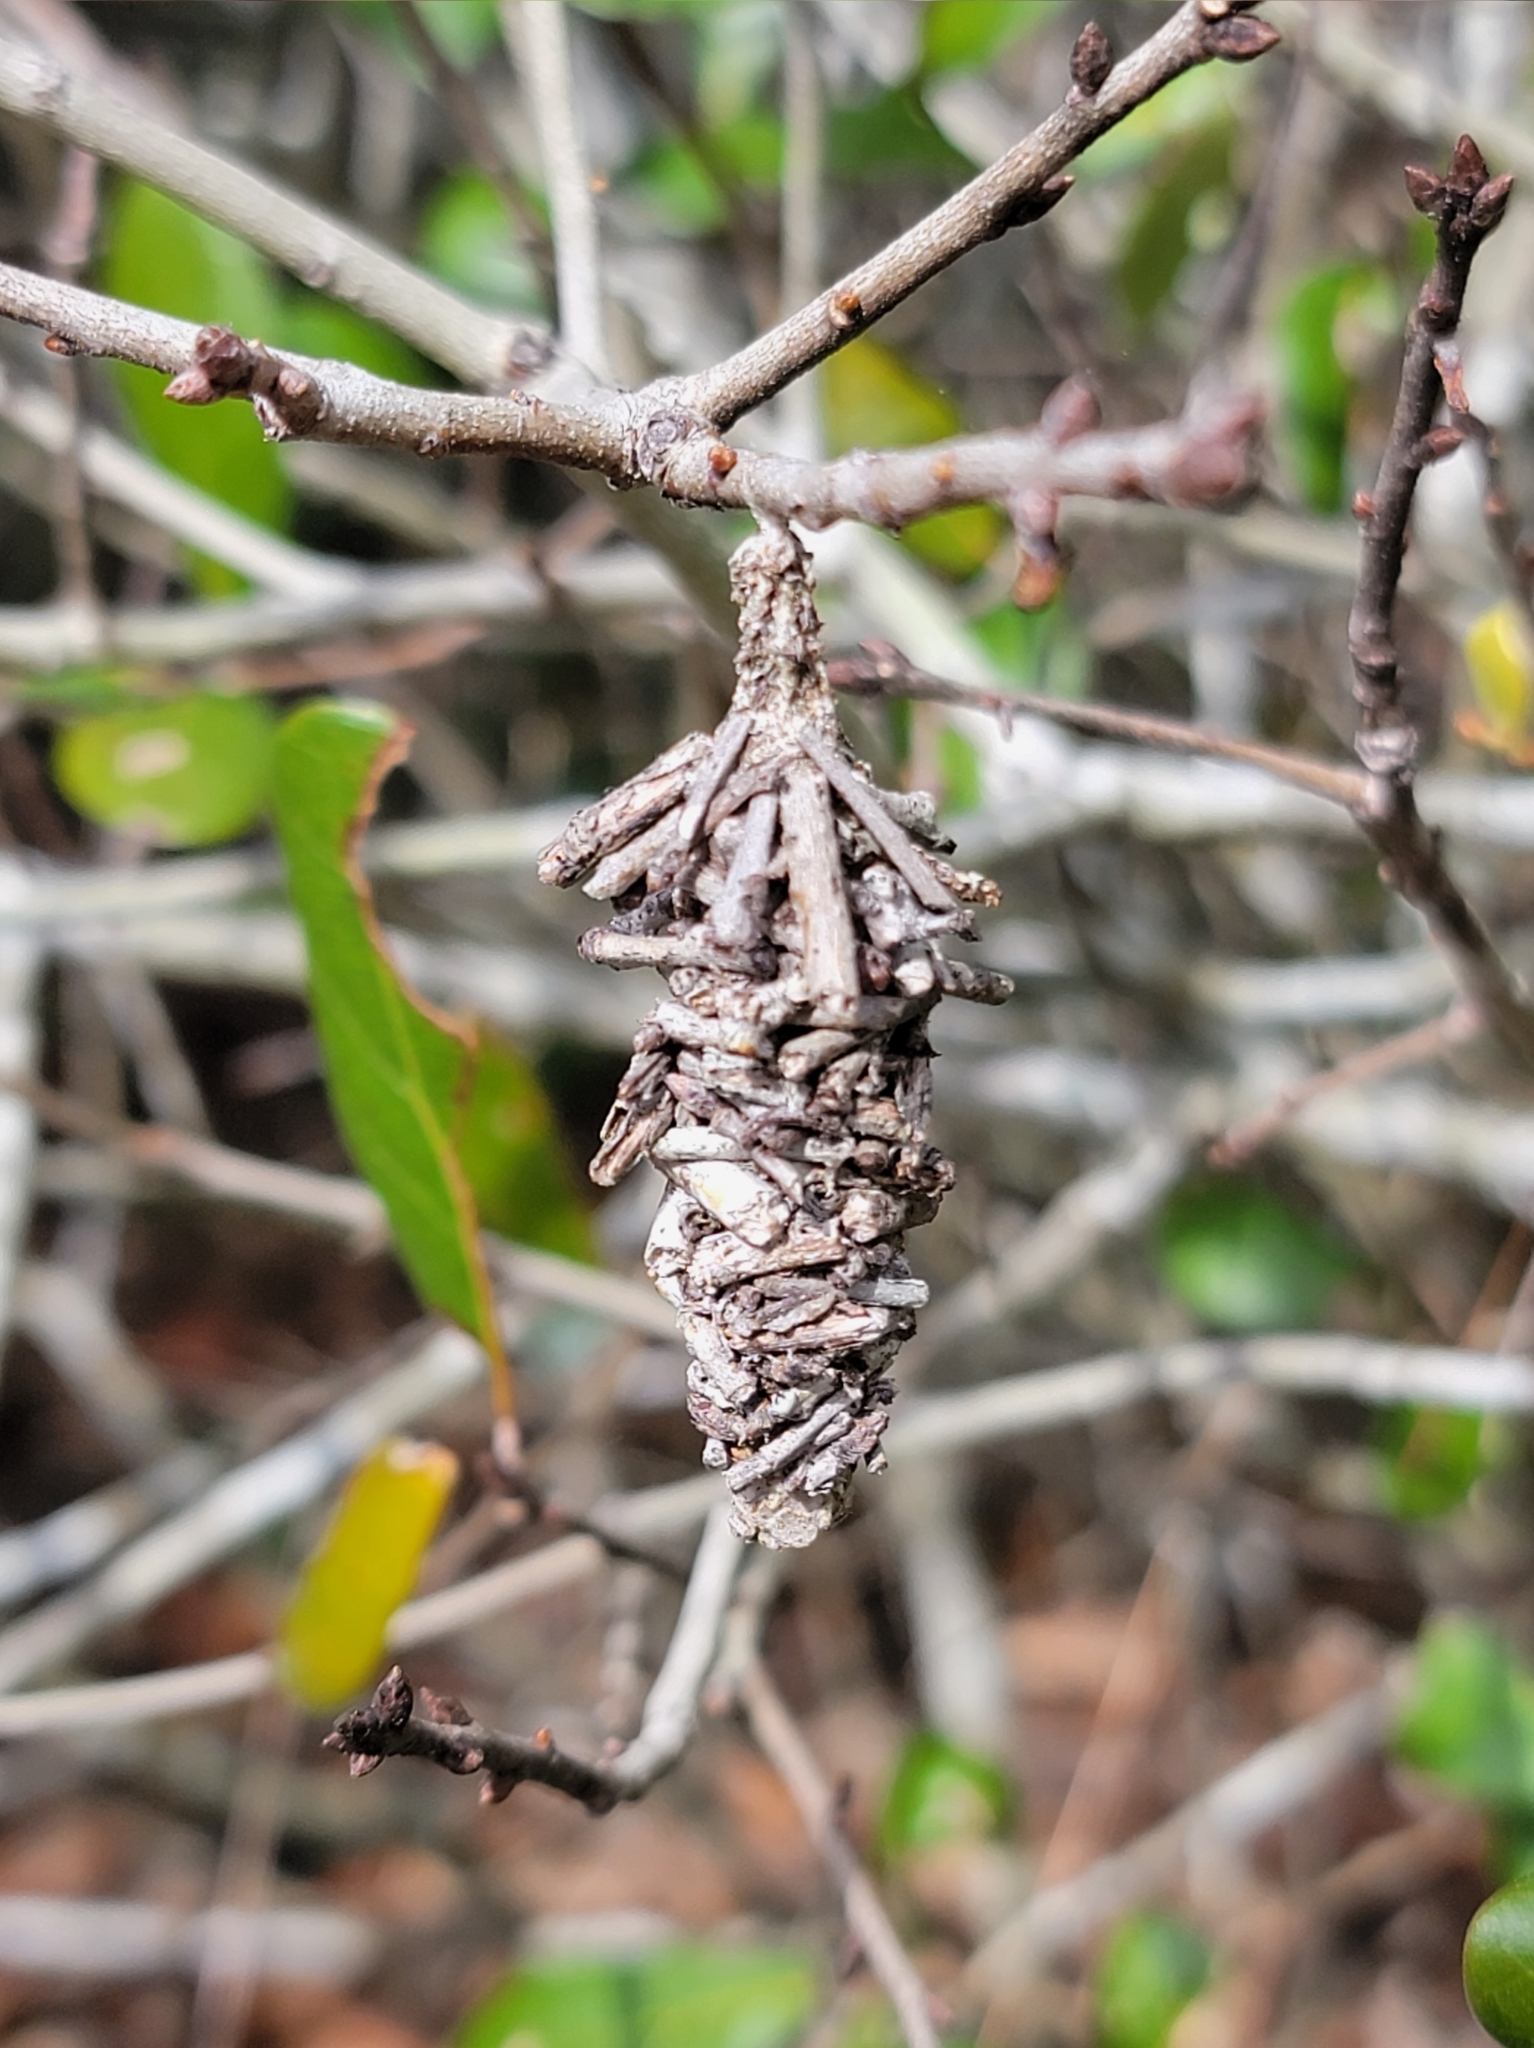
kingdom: Animalia
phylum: Arthropoda
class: Insecta
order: Lepidoptera
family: Psychidae
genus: Oiketicus
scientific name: Oiketicus
